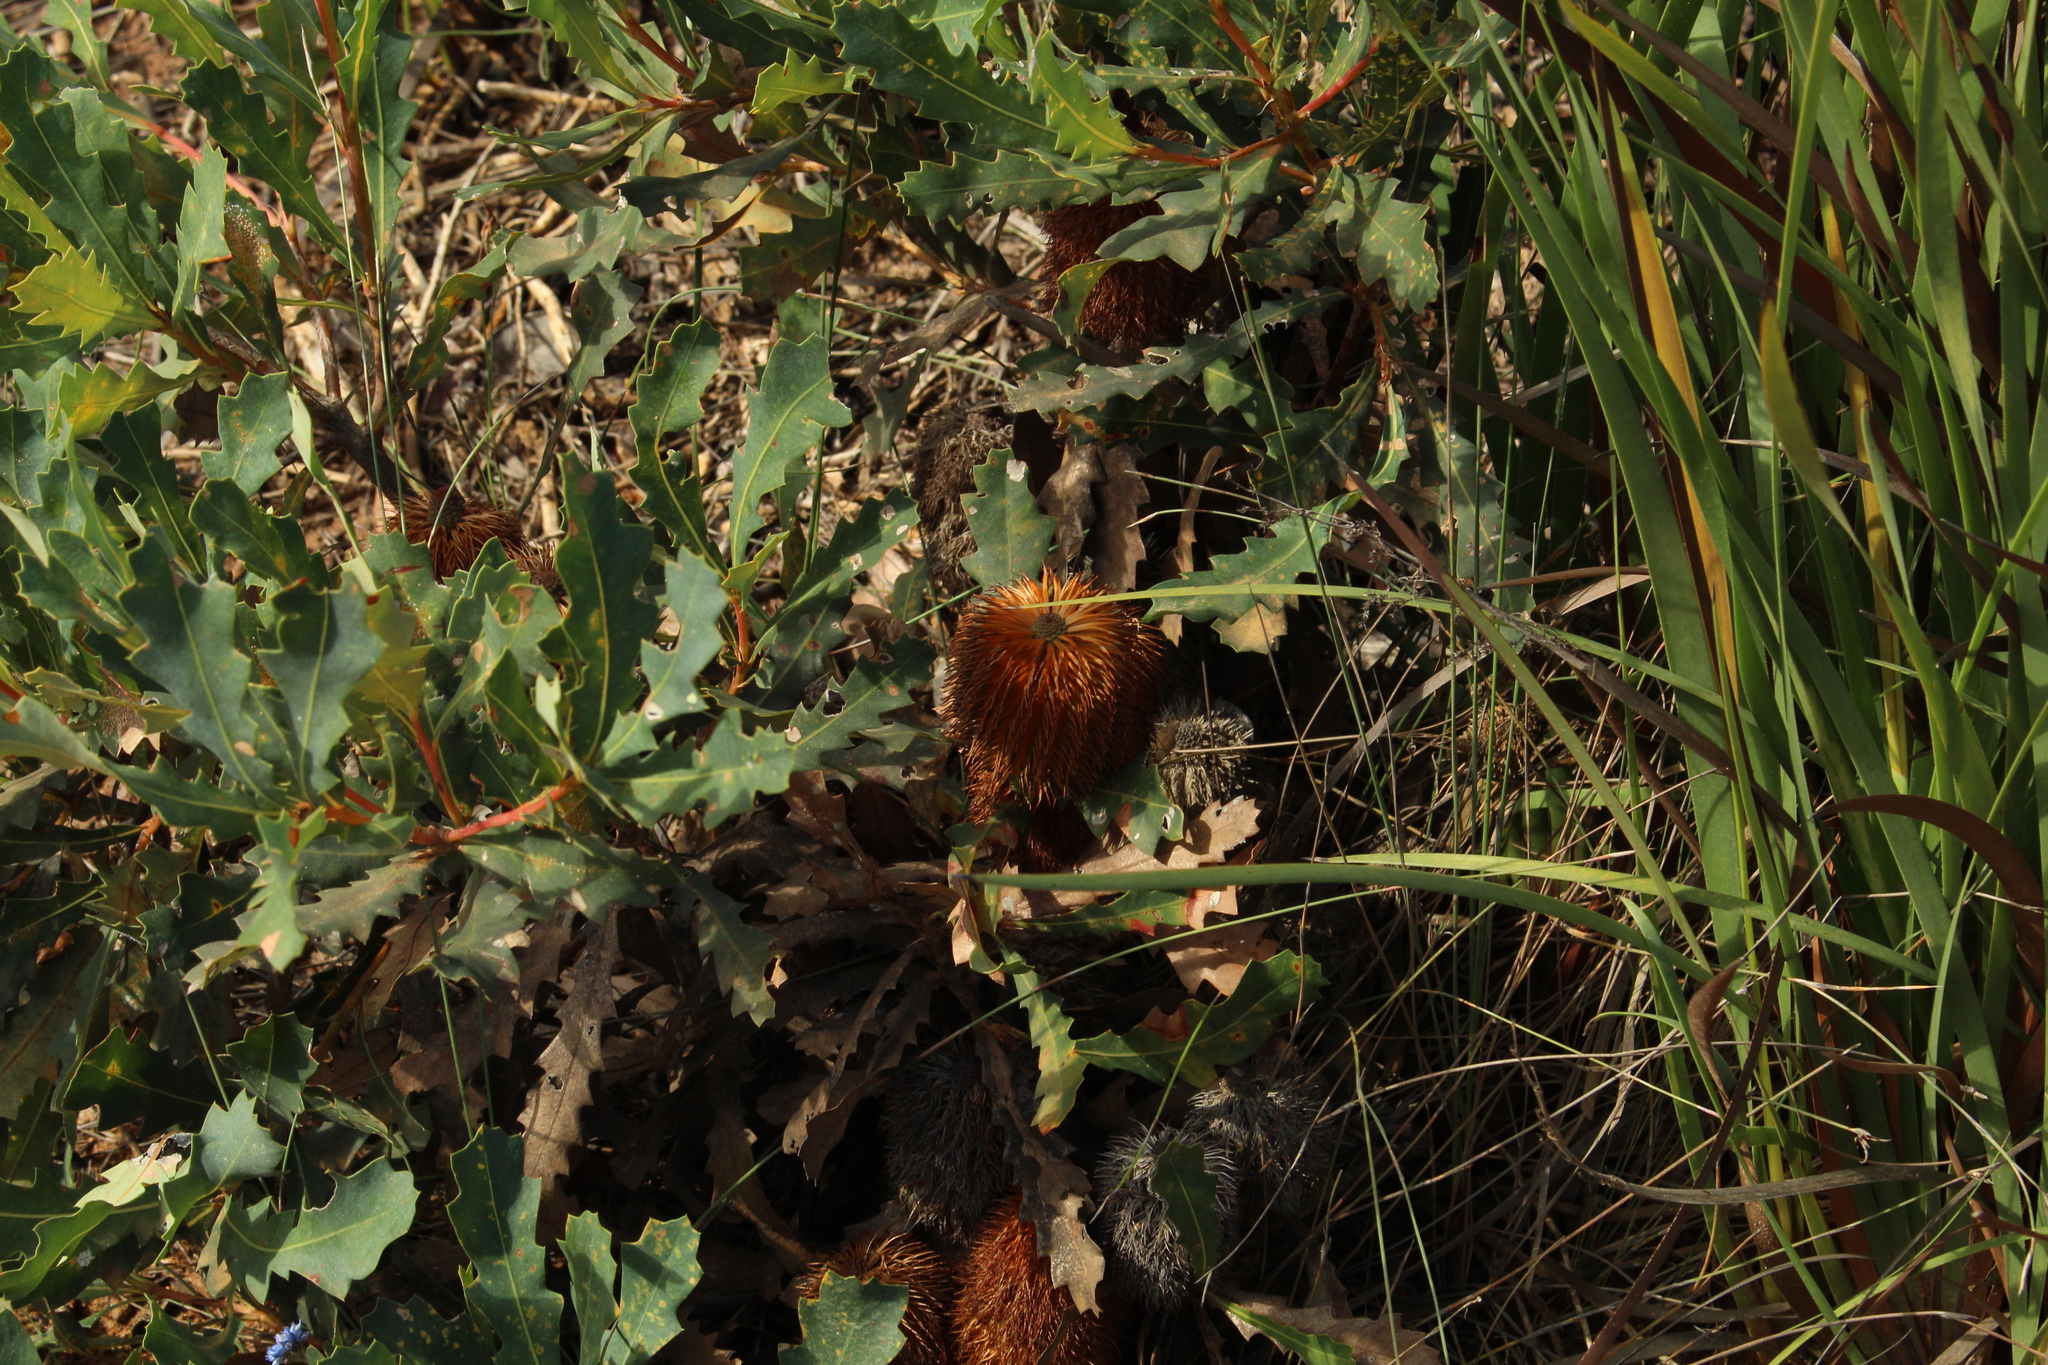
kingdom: Plantae
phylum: Tracheophyta
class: Magnoliopsida
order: Proteales
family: Proteaceae
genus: Banksia
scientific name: Banksia quercifolia
